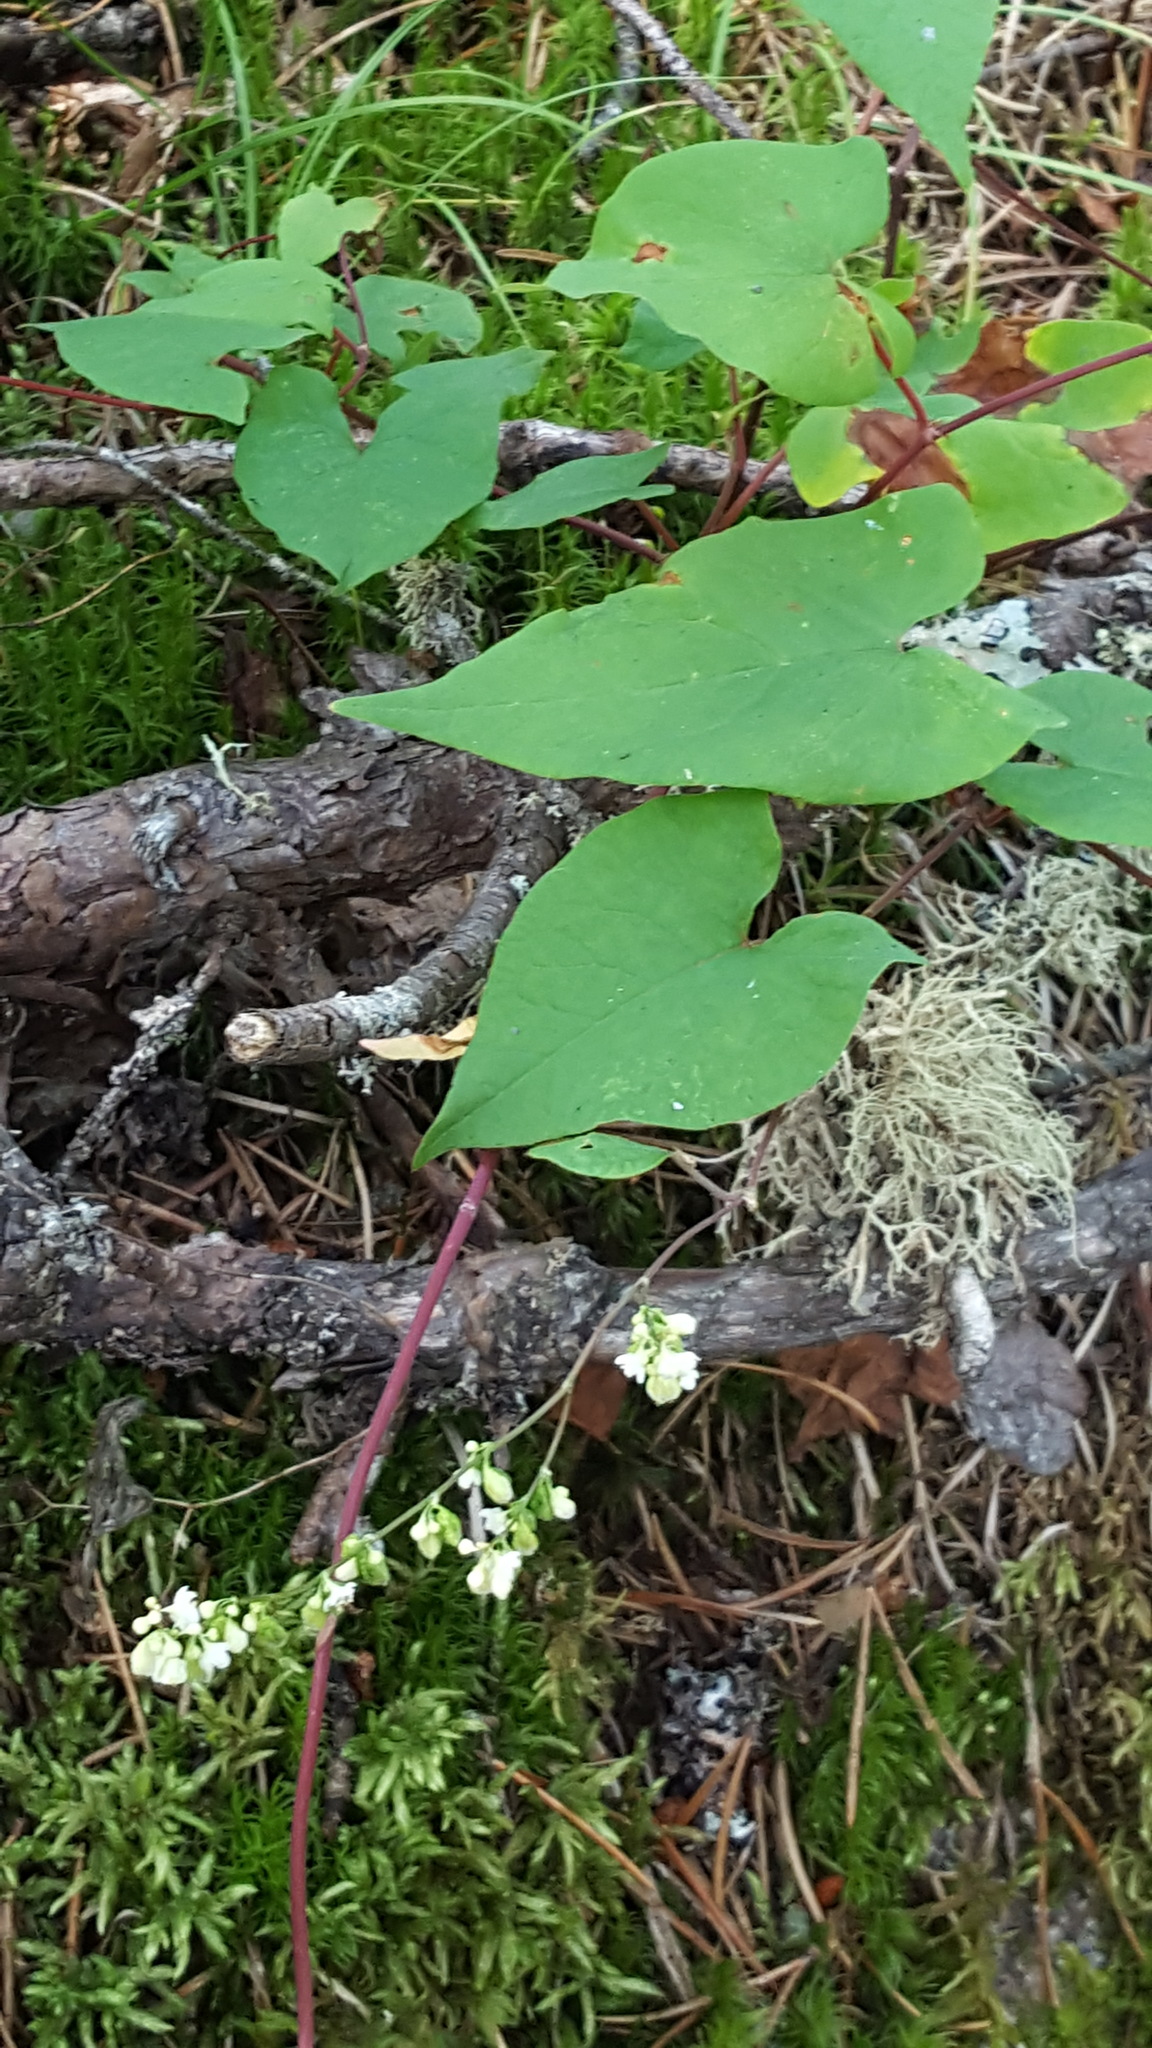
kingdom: Plantae
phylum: Tracheophyta
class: Magnoliopsida
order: Caryophyllales
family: Polygonaceae
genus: Parogonum
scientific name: Parogonum ciliinode
